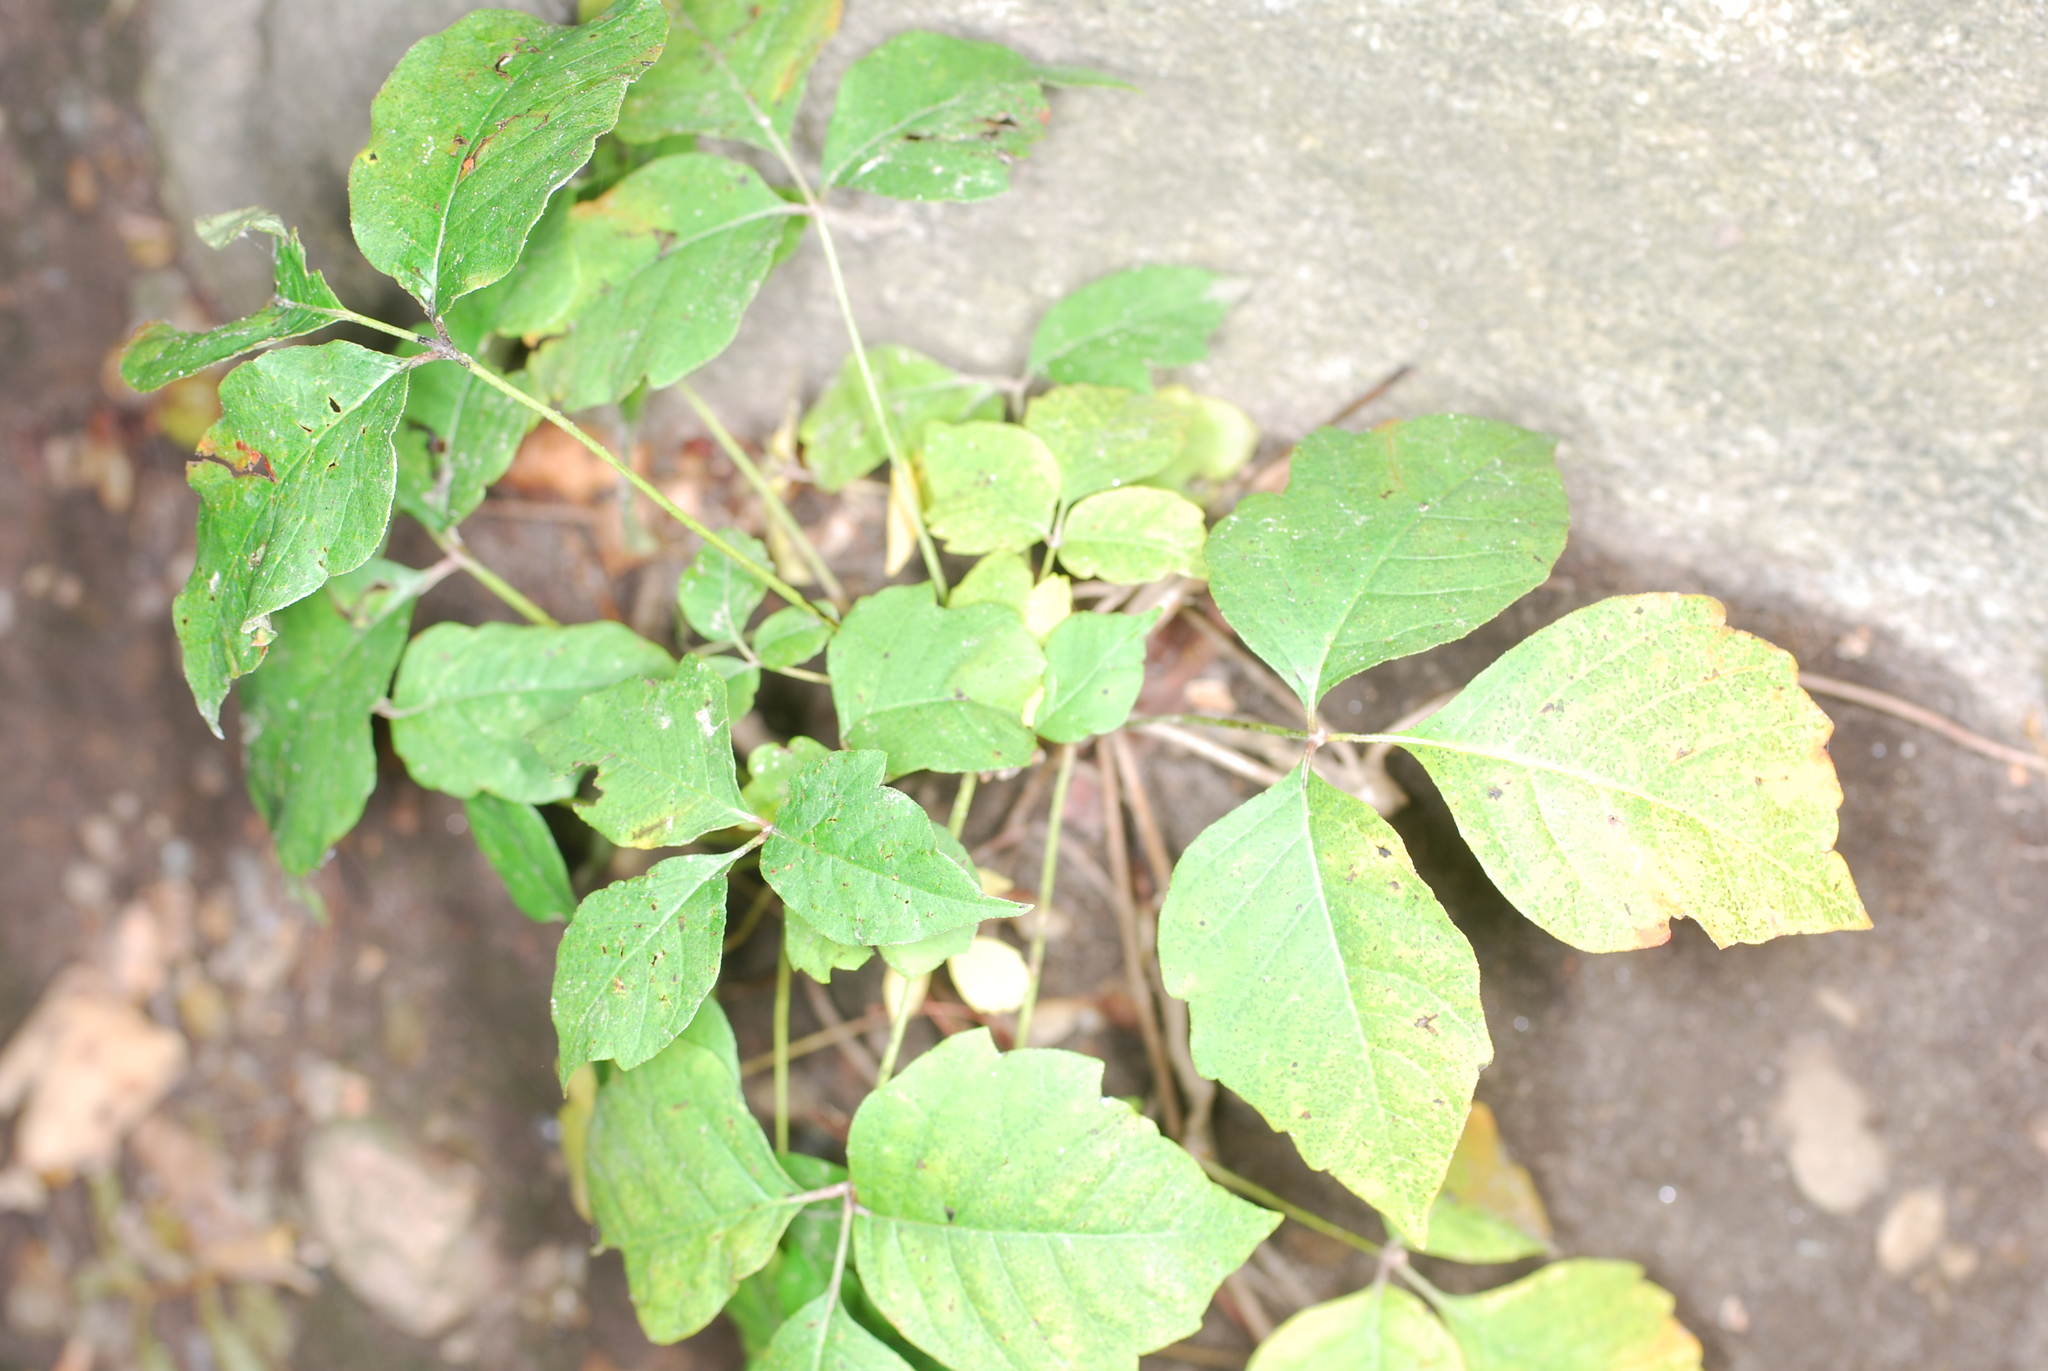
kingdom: Plantae
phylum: Tracheophyta
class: Magnoliopsida
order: Sapindales
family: Anacardiaceae
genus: Toxicodendron
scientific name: Toxicodendron radicans
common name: Poison ivy
